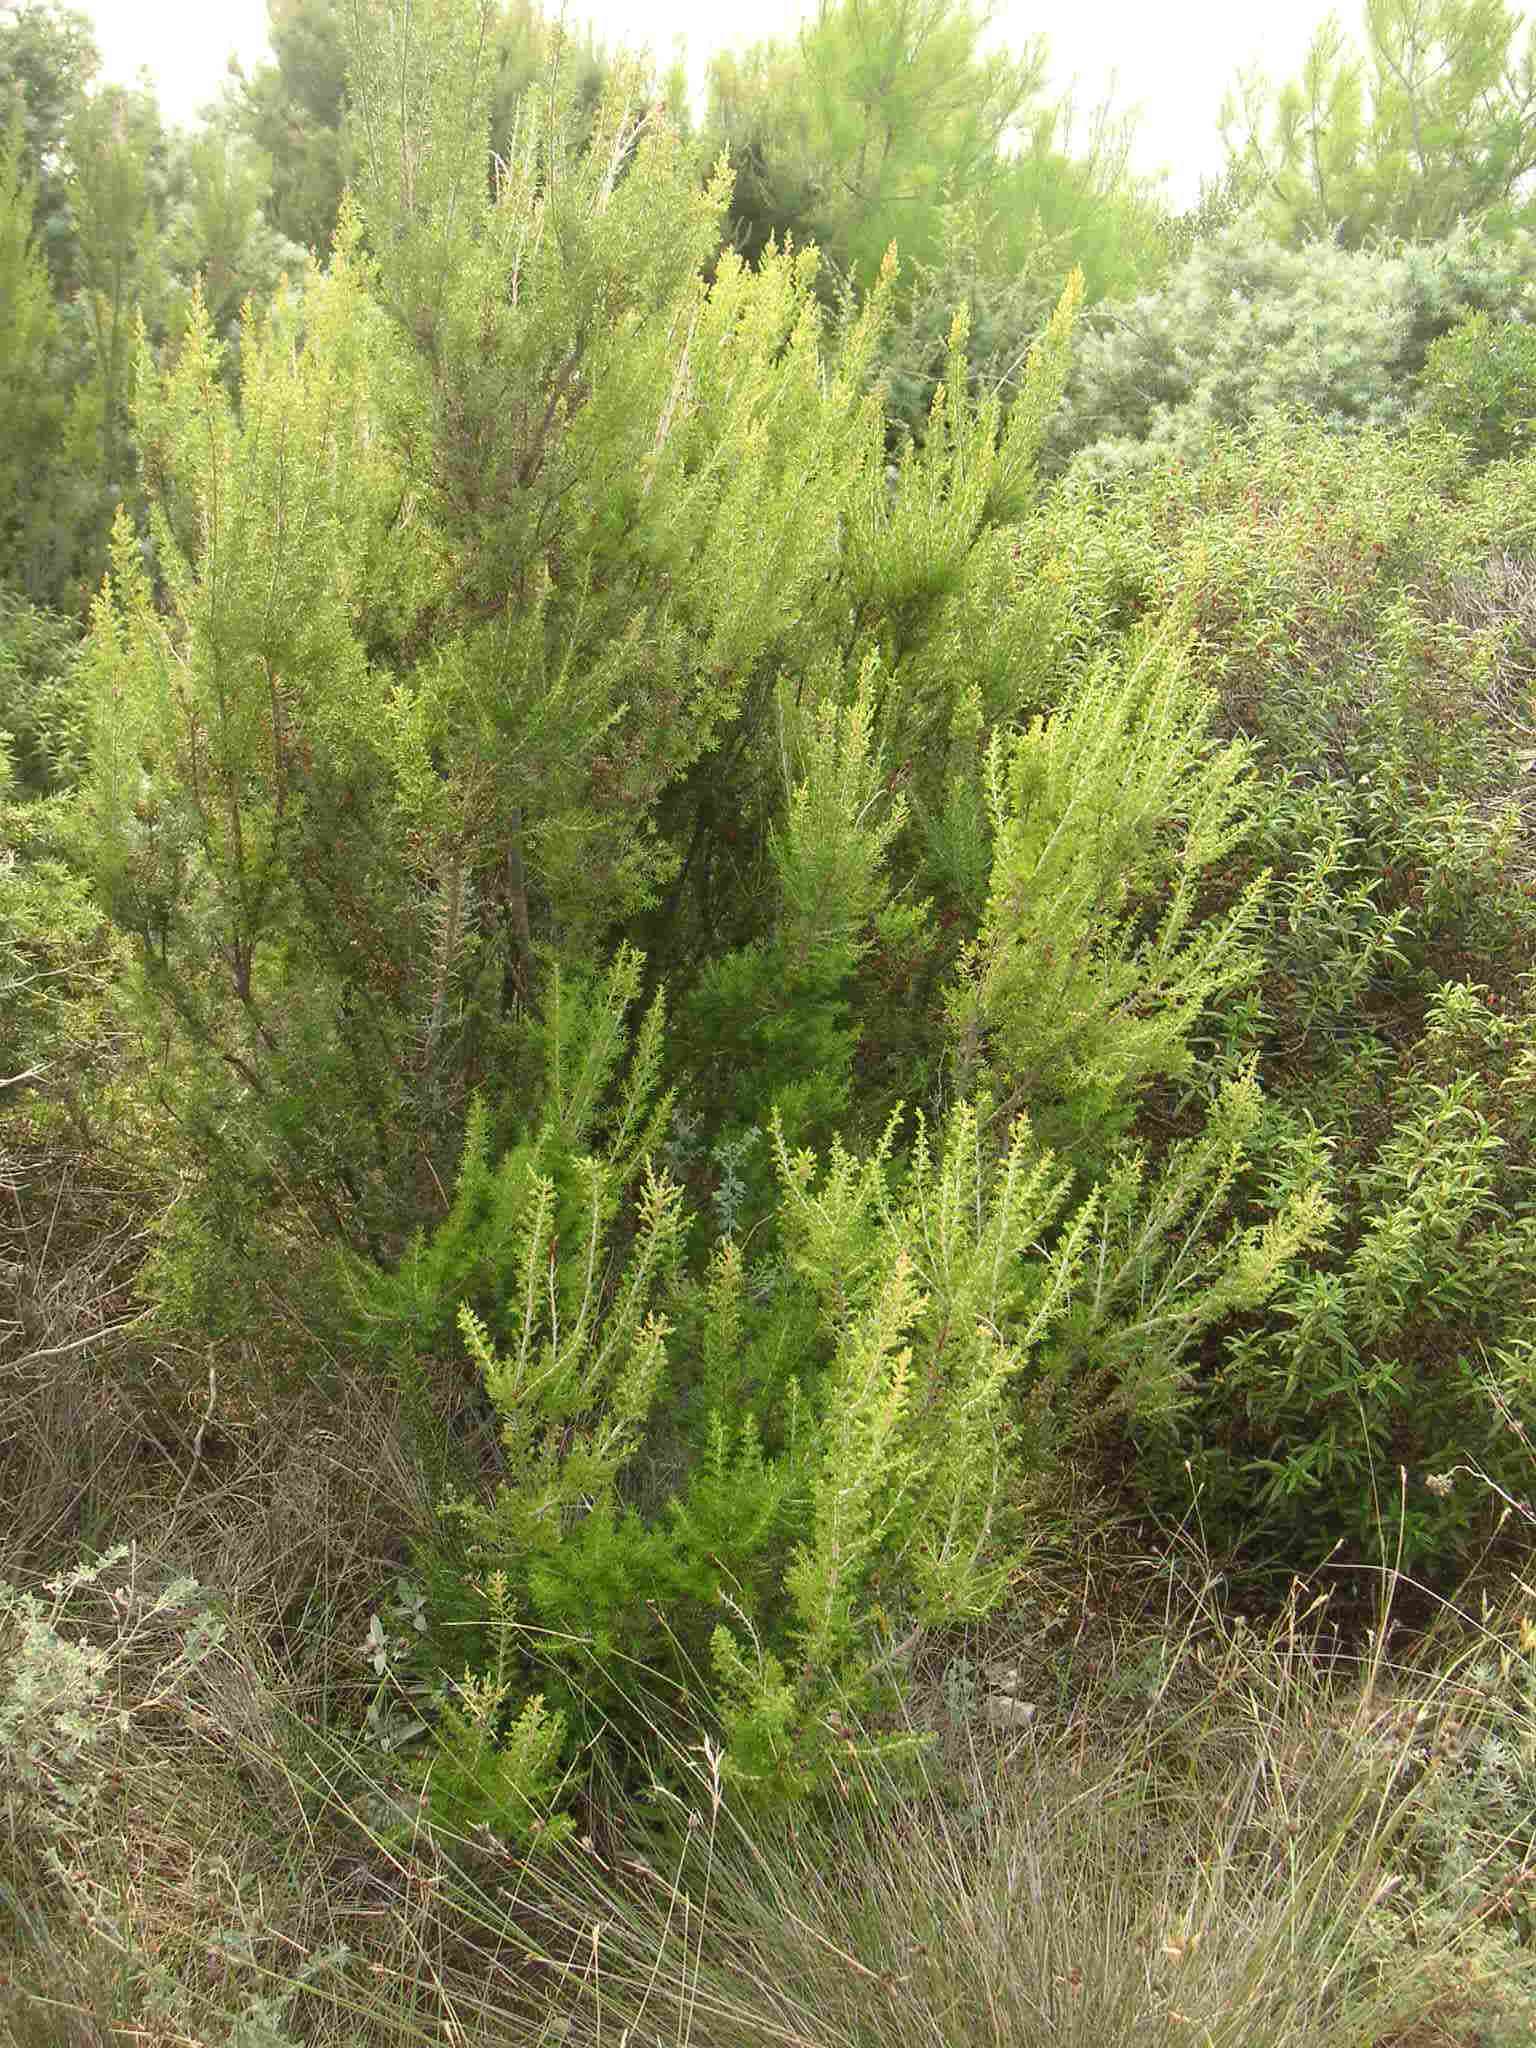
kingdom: Plantae
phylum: Tracheophyta
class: Magnoliopsida
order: Ericales
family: Ericaceae
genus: Erica
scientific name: Erica arborea
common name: Tree heath
